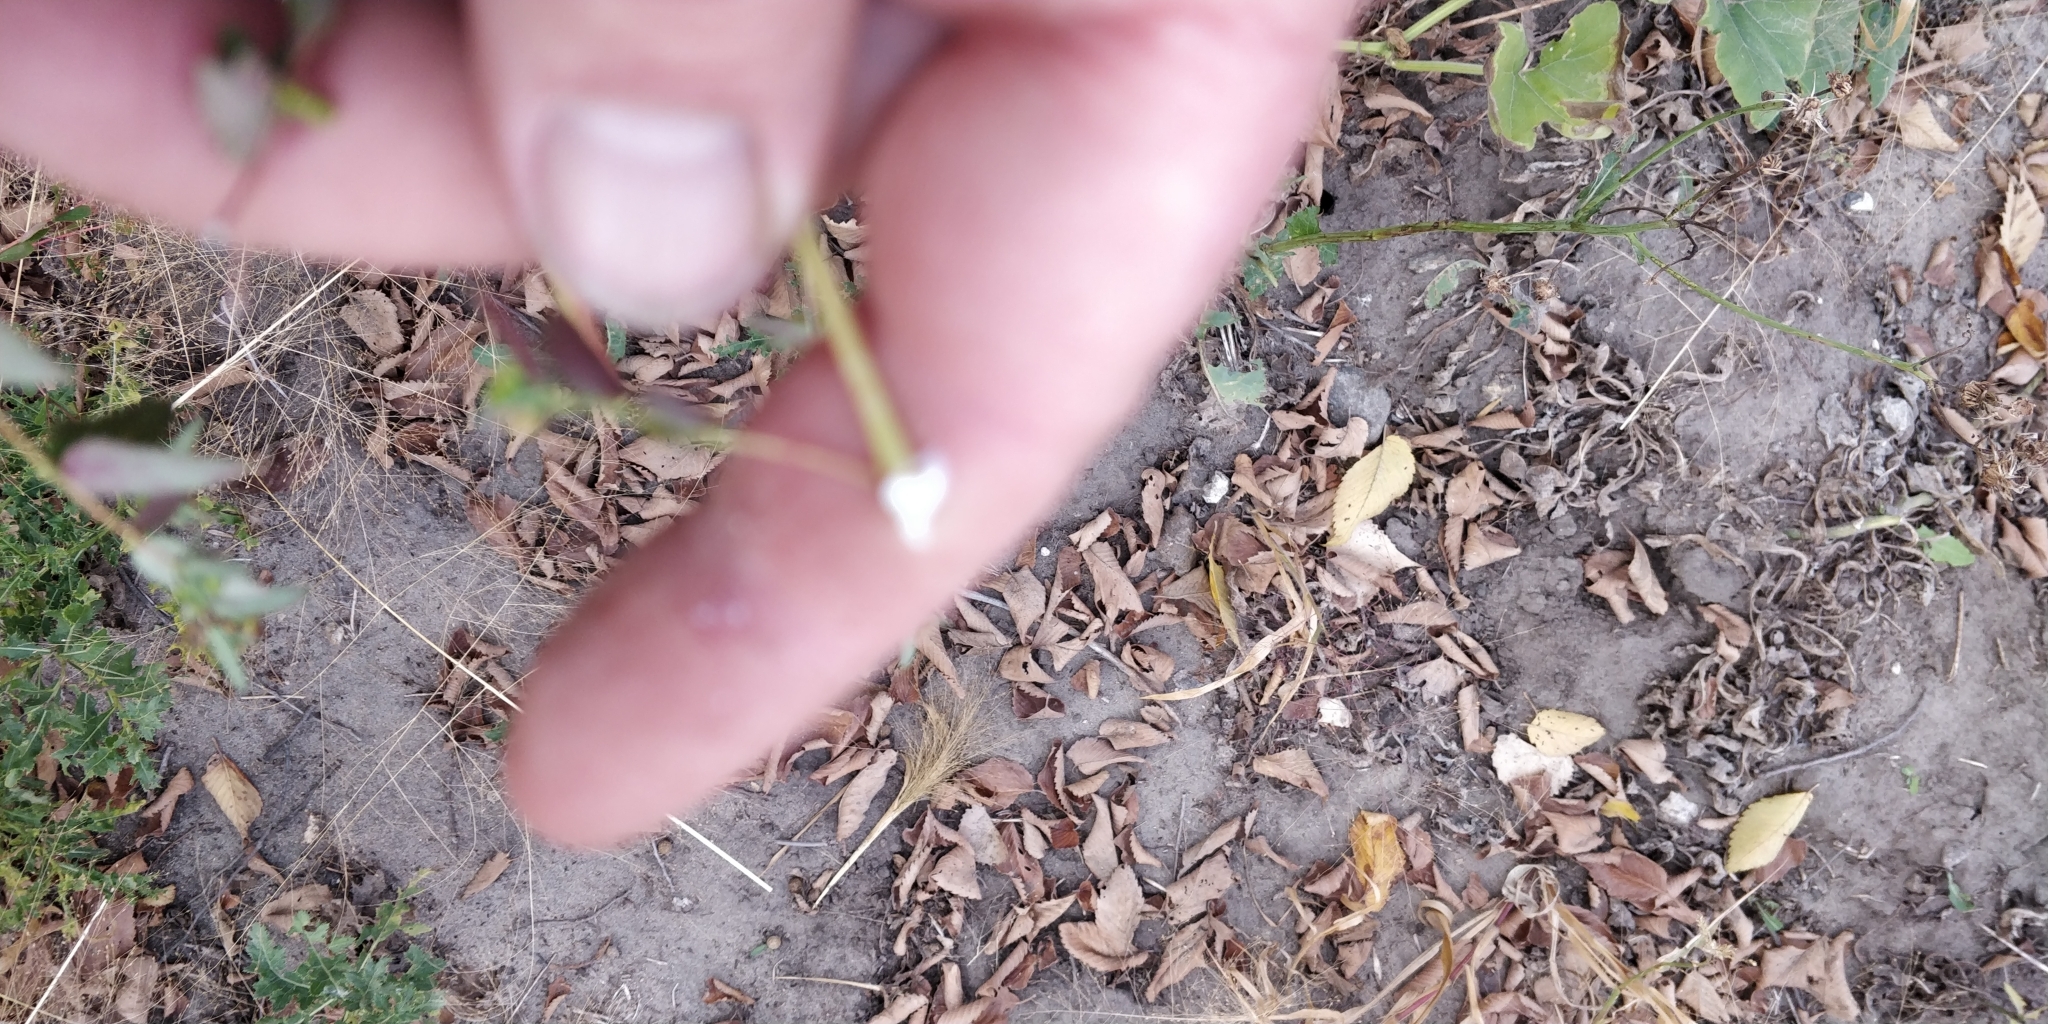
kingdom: Plantae
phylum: Tracheophyta
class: Magnoliopsida
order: Malpighiales
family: Euphorbiaceae
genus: Euphorbia
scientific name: Euphorbia nutans
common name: Eyebane
